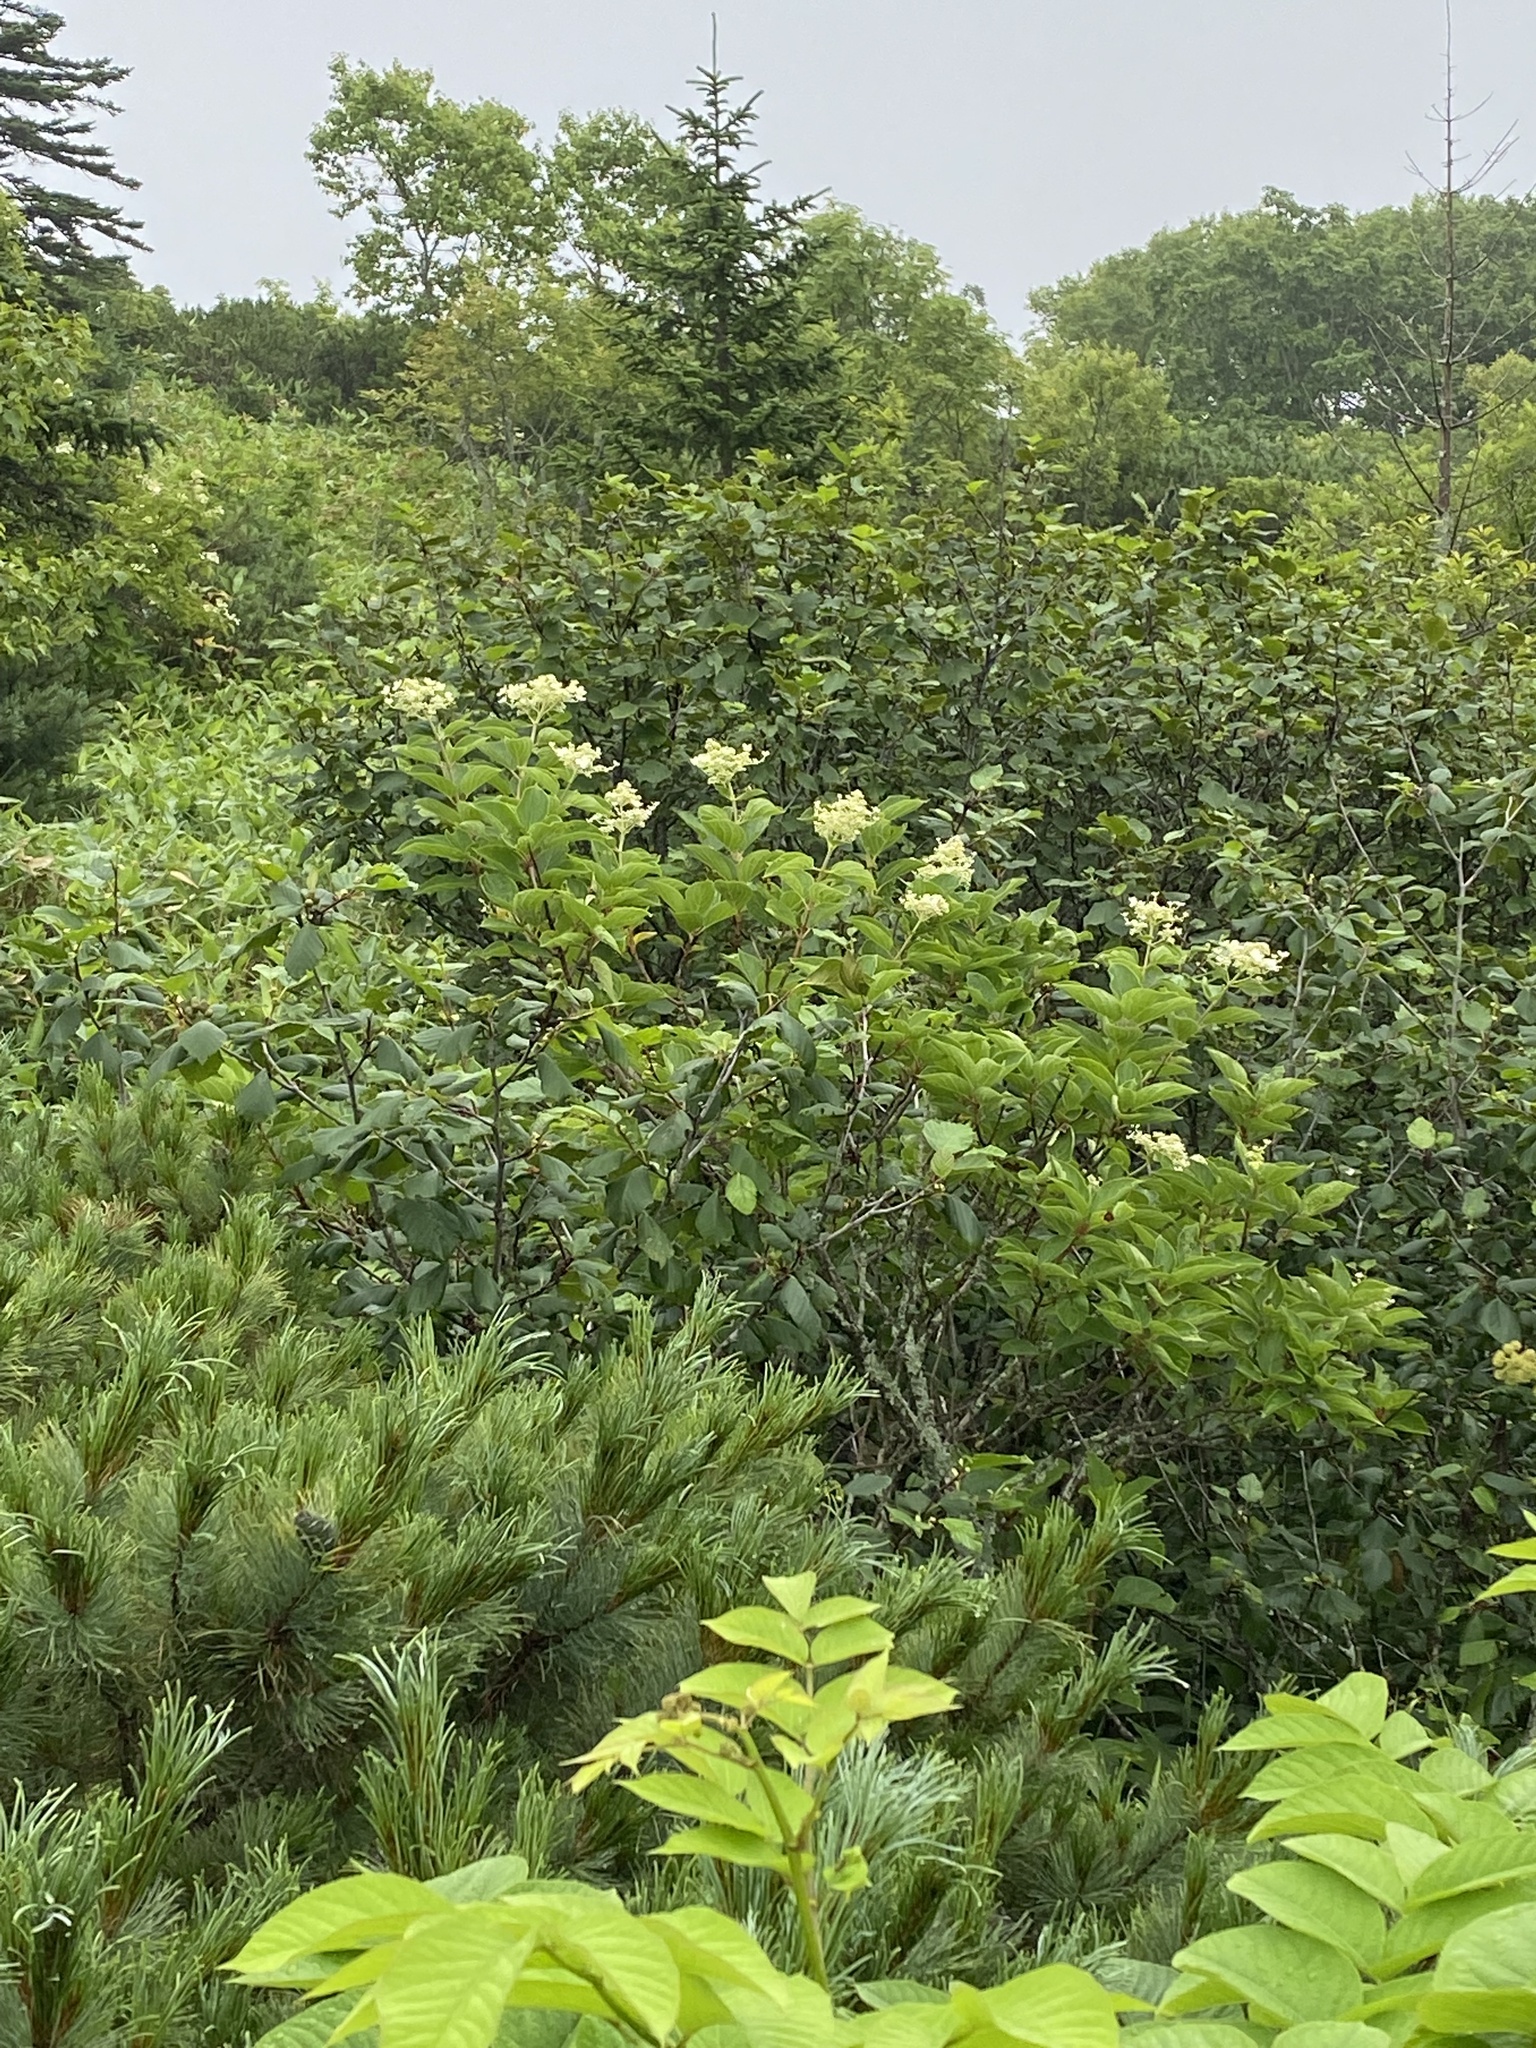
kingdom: Plantae
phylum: Tracheophyta
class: Magnoliopsida
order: Cornales
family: Hydrangeaceae
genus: Hydrangea
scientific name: Hydrangea paniculata
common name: Panicled hydrangea
